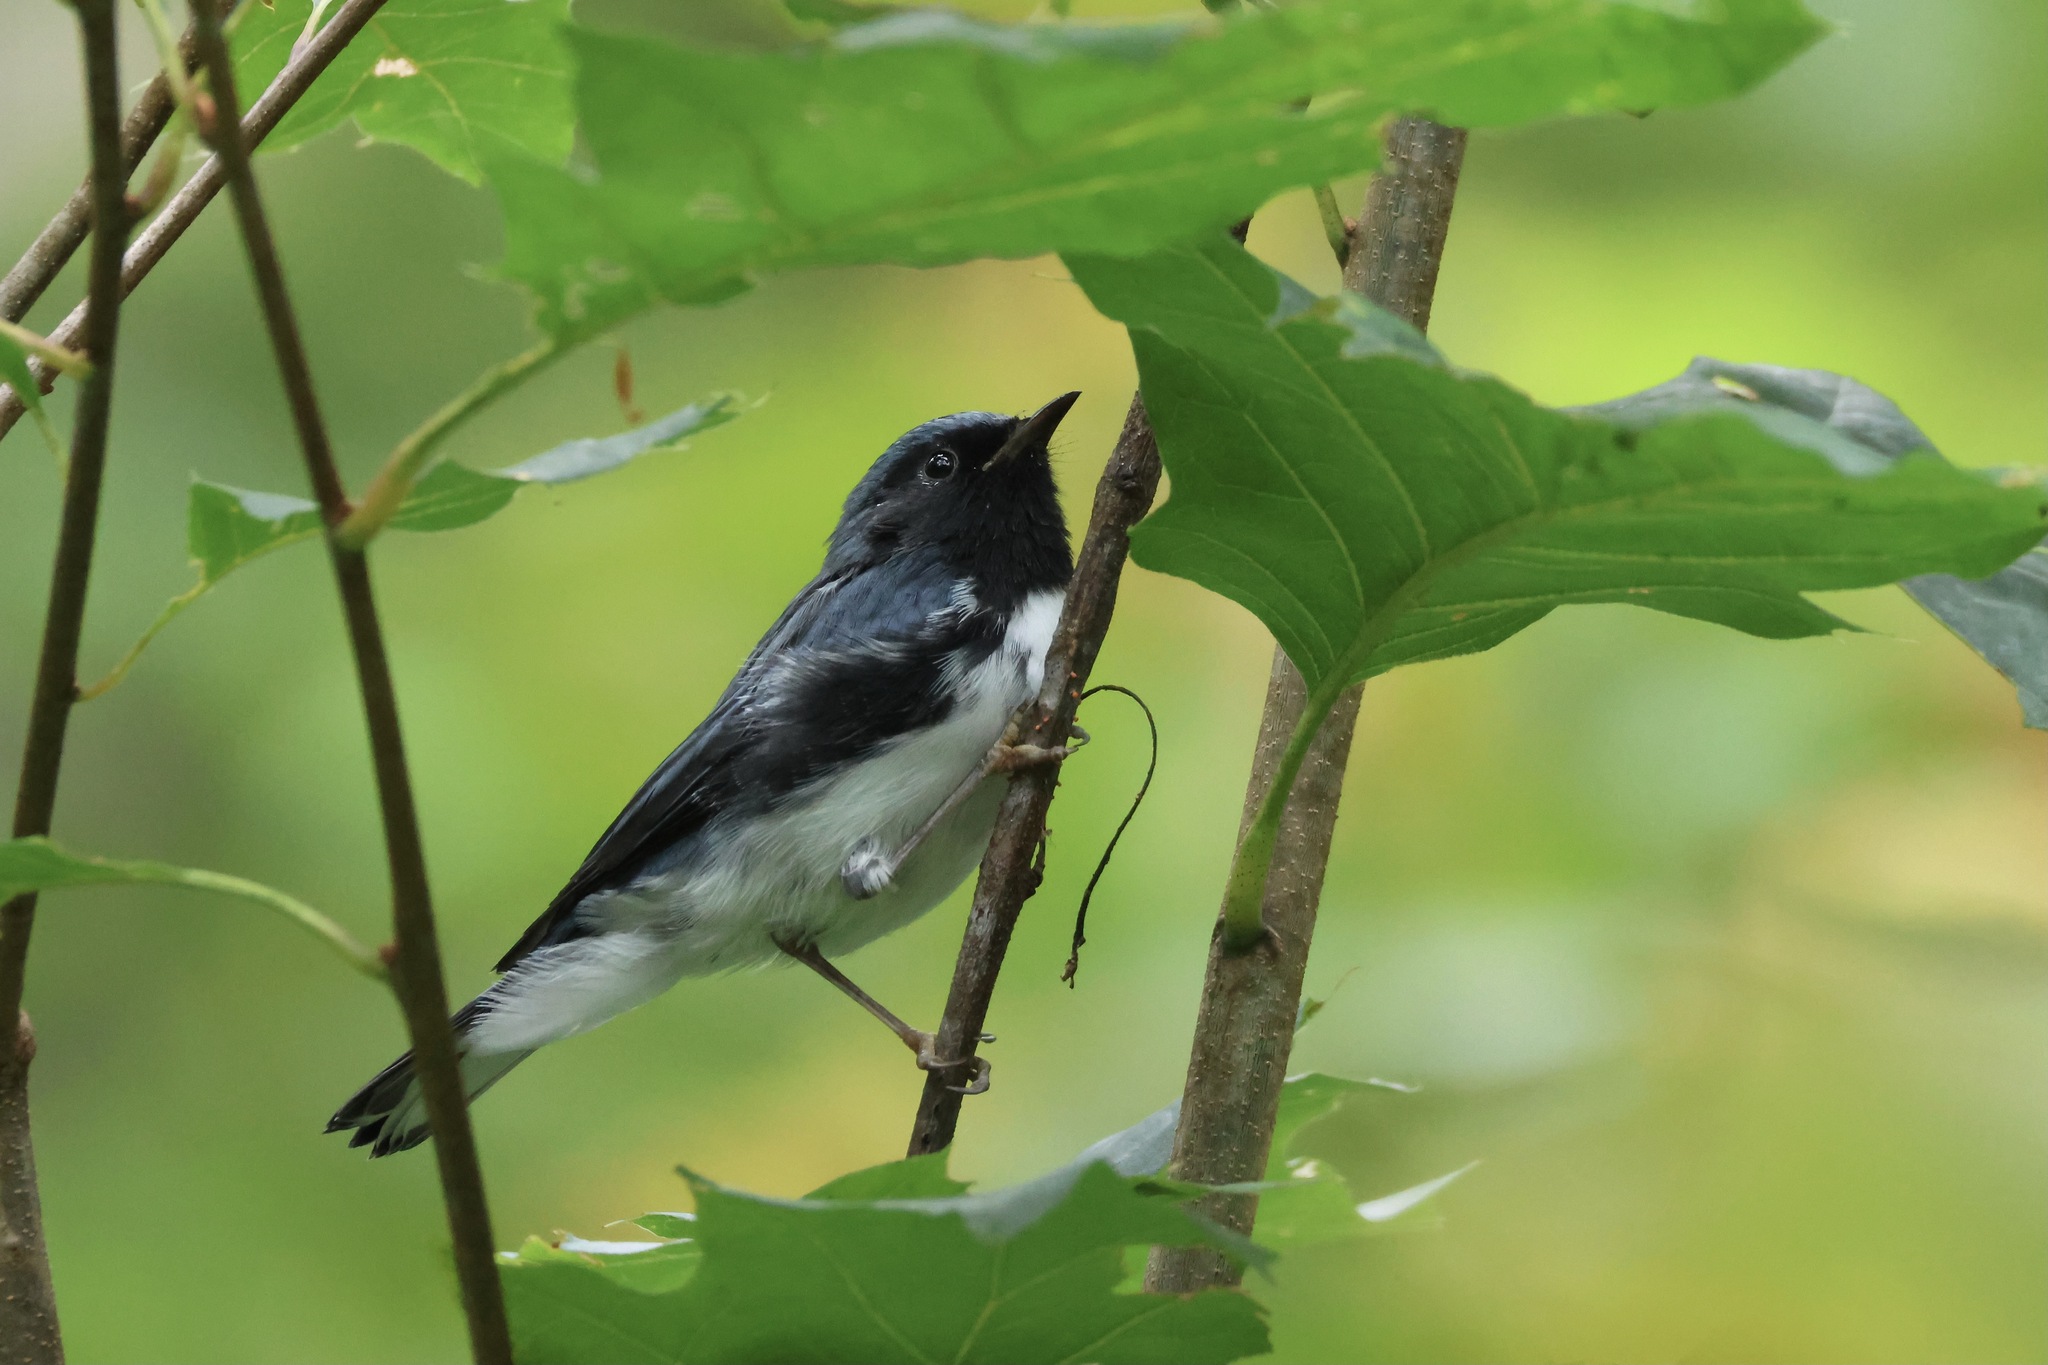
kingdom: Animalia
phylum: Chordata
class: Aves
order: Passeriformes
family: Parulidae
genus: Setophaga
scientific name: Setophaga caerulescens
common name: Black-throated blue warbler
